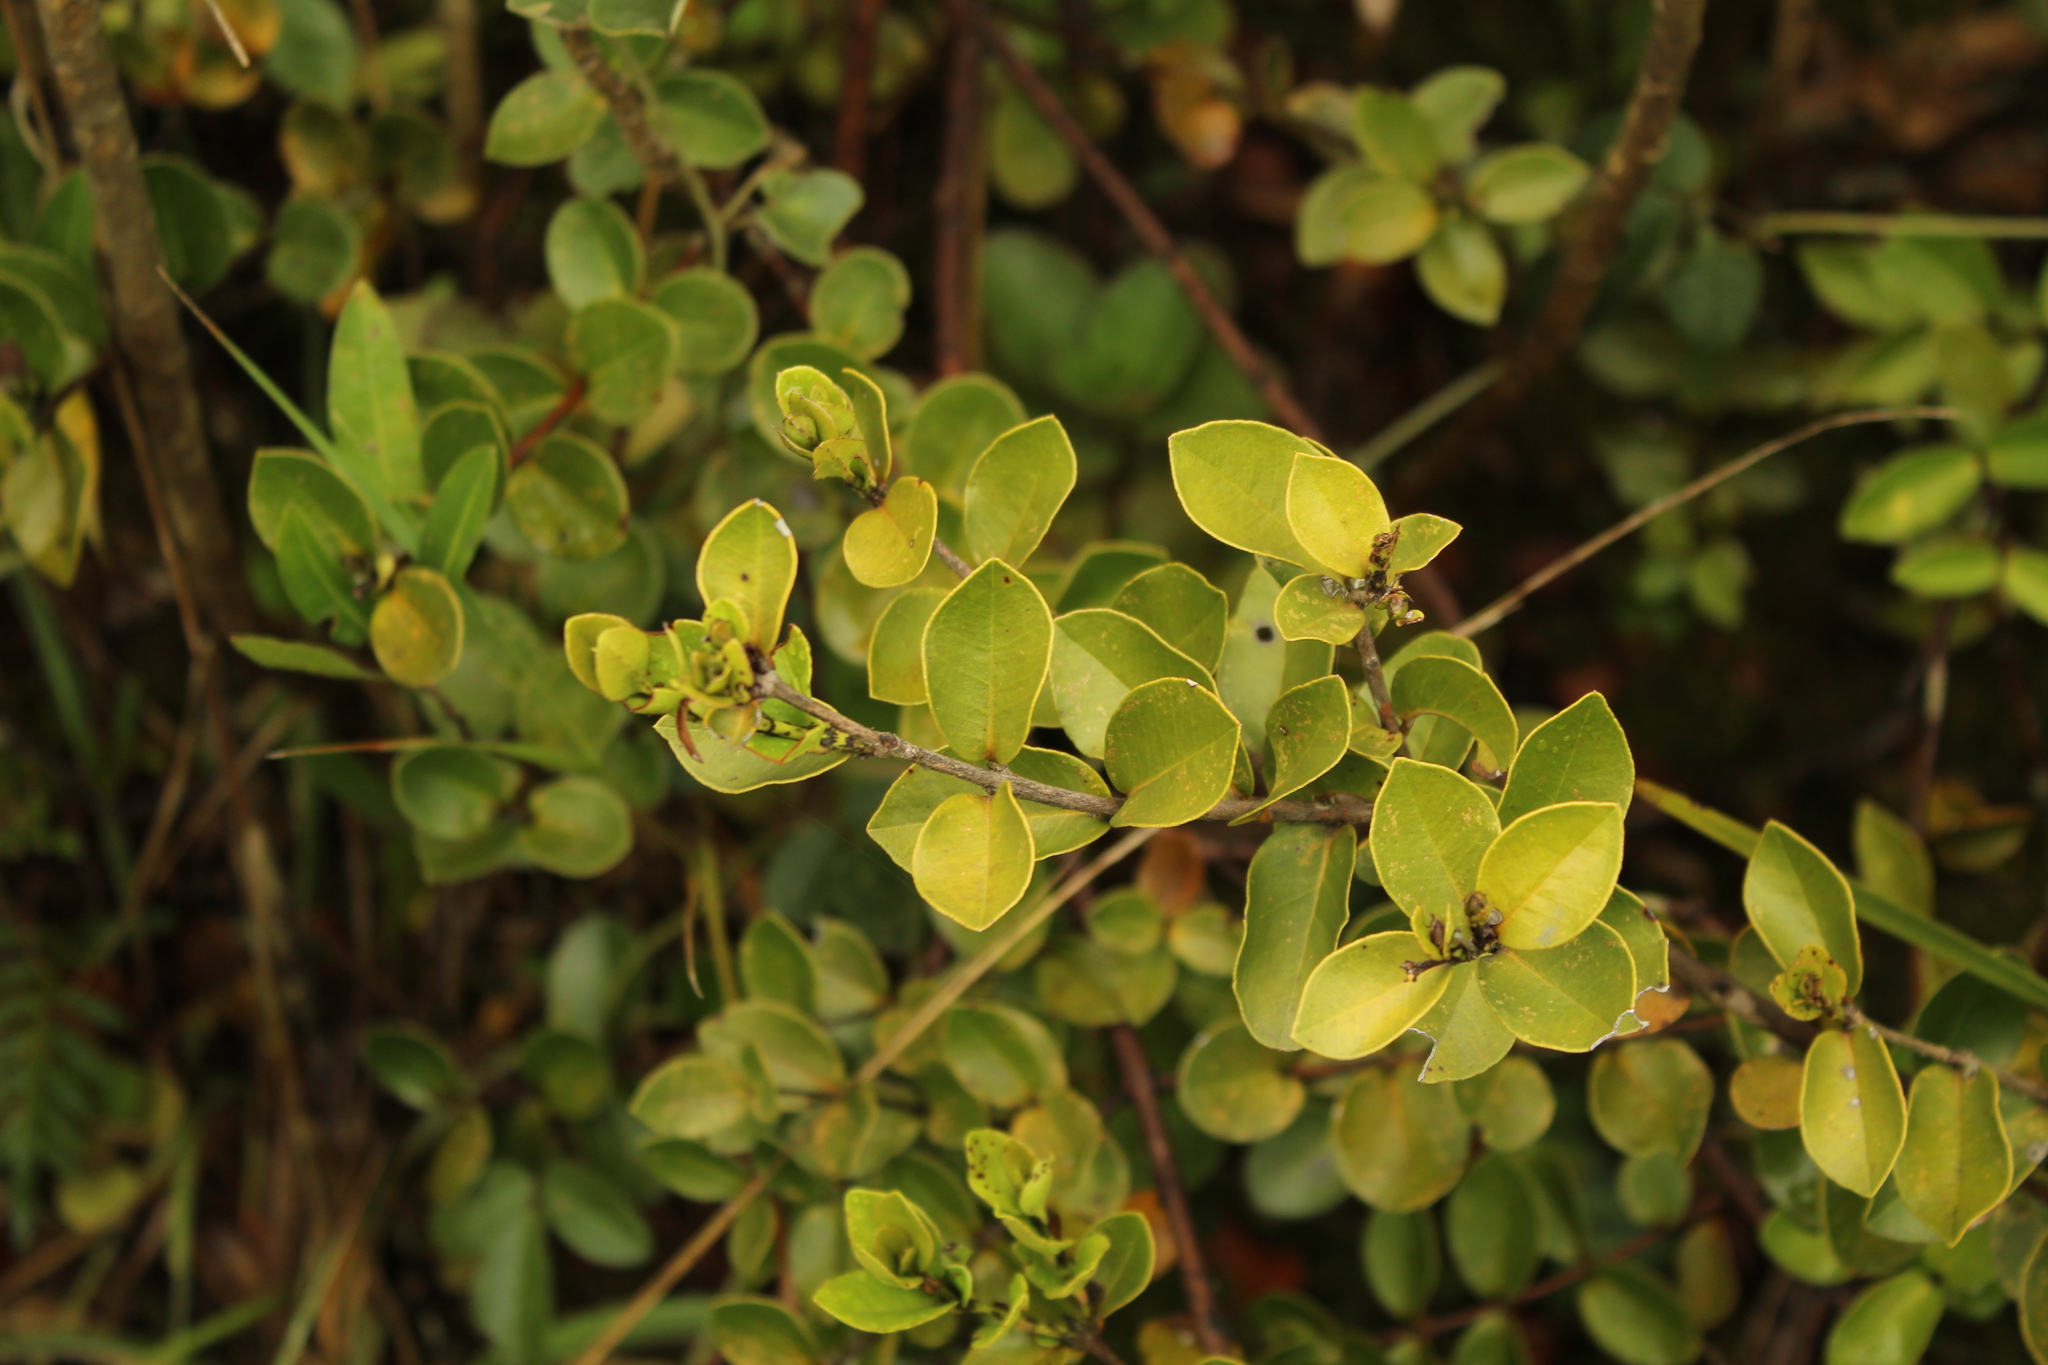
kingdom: Plantae
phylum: Tracheophyta
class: Magnoliopsida
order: Myrtales
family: Myrtaceae
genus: Myrcianthes
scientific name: Myrcianthes leucoxyla
